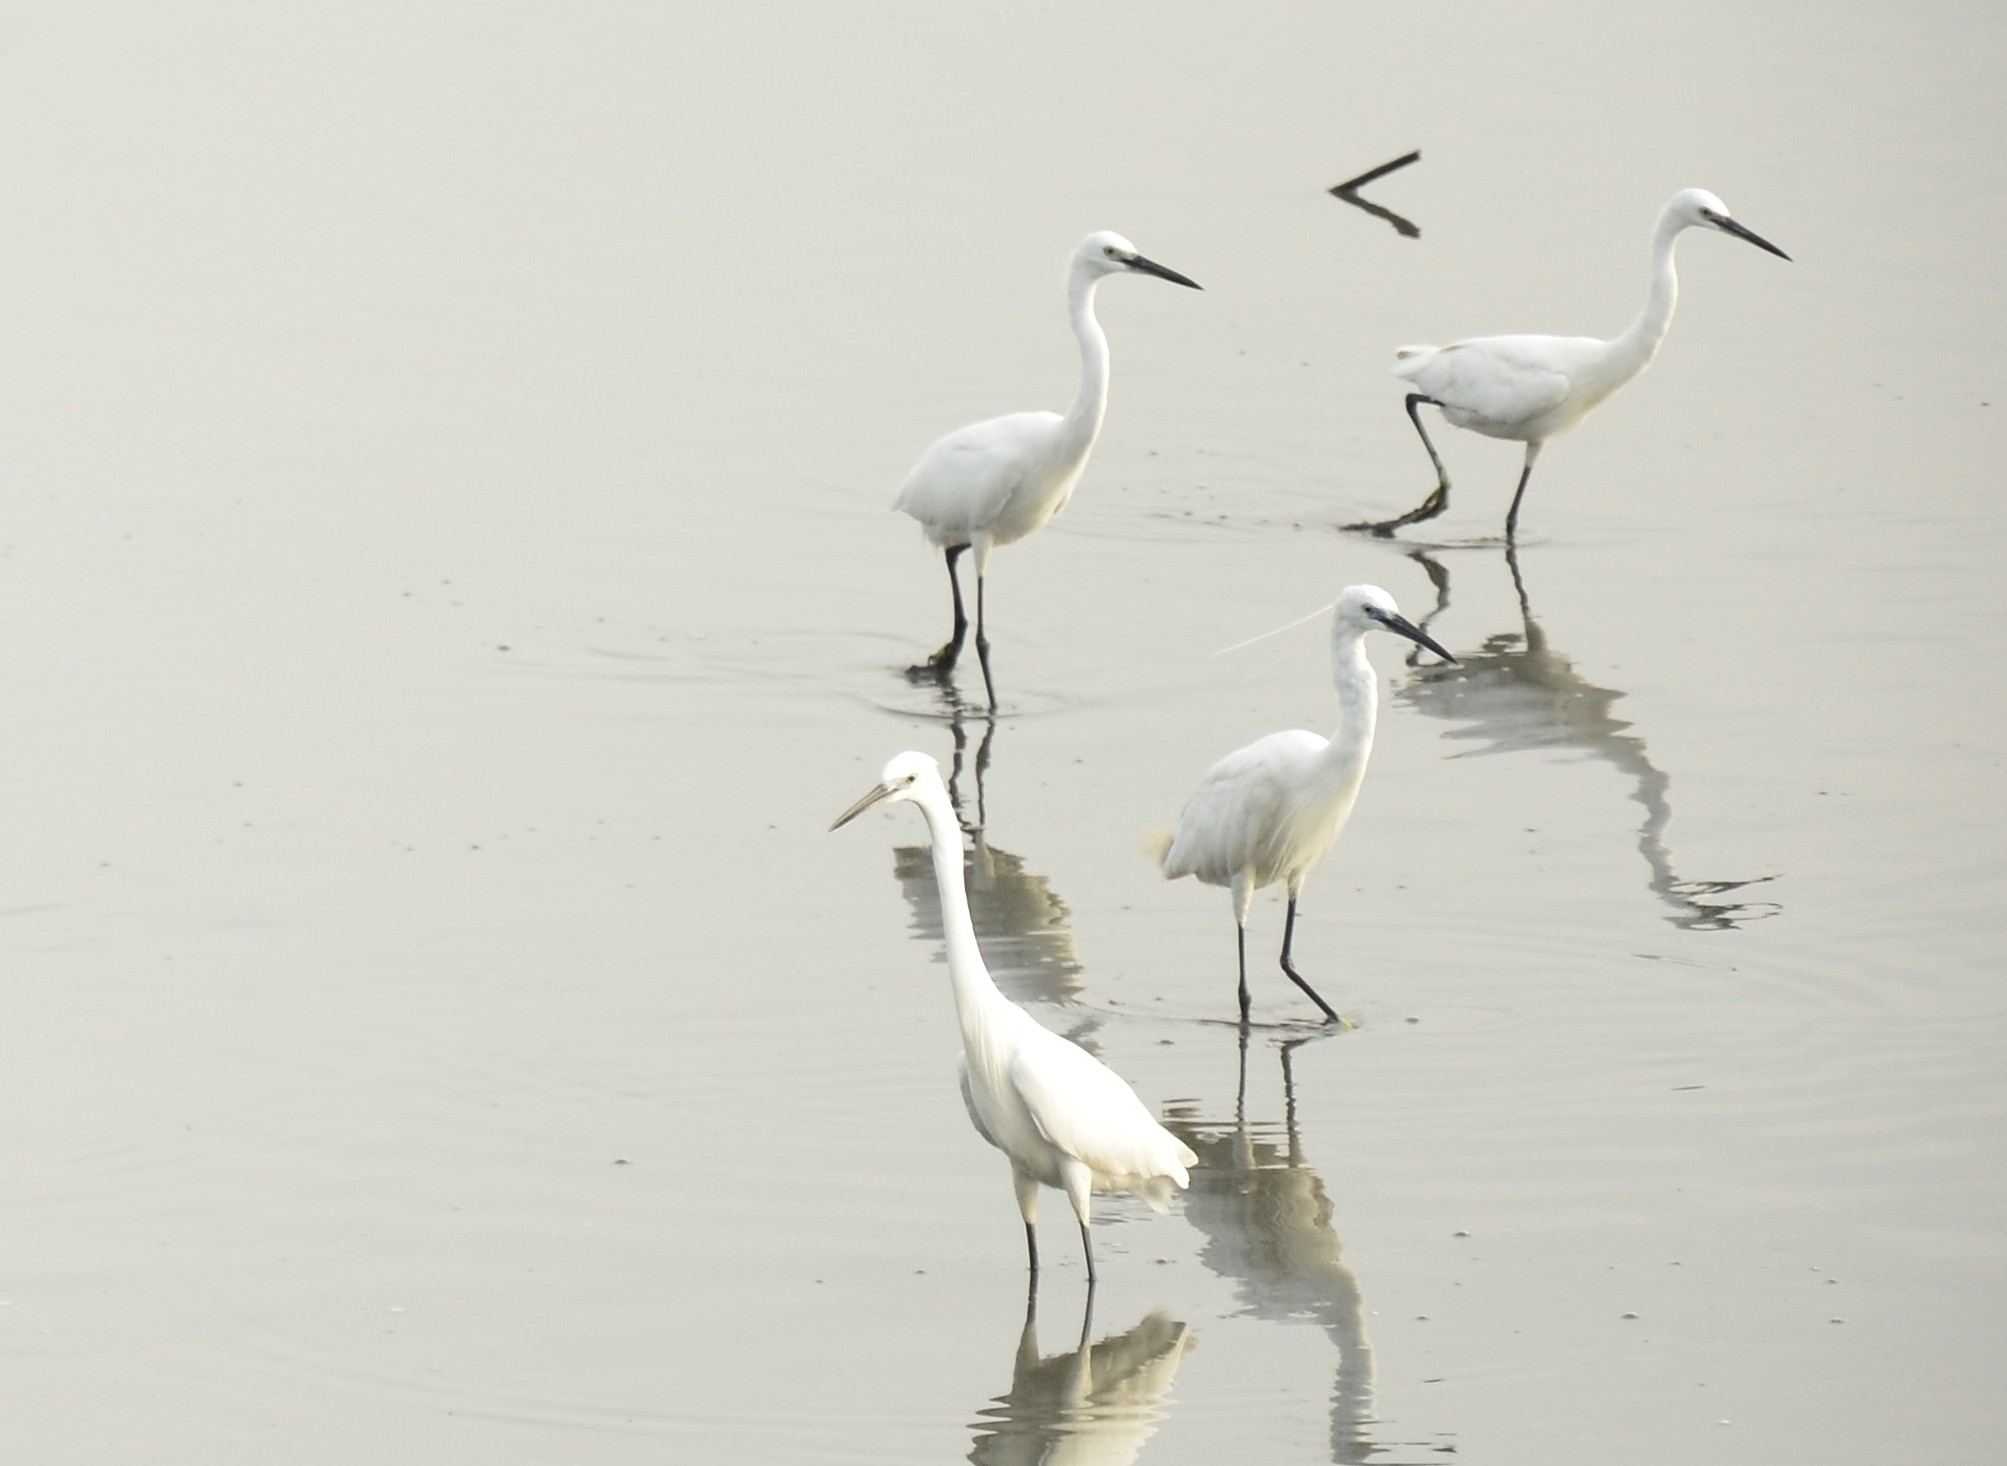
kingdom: Animalia
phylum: Chordata
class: Aves
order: Pelecaniformes
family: Ardeidae
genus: Egretta
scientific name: Egretta garzetta
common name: Little egret
